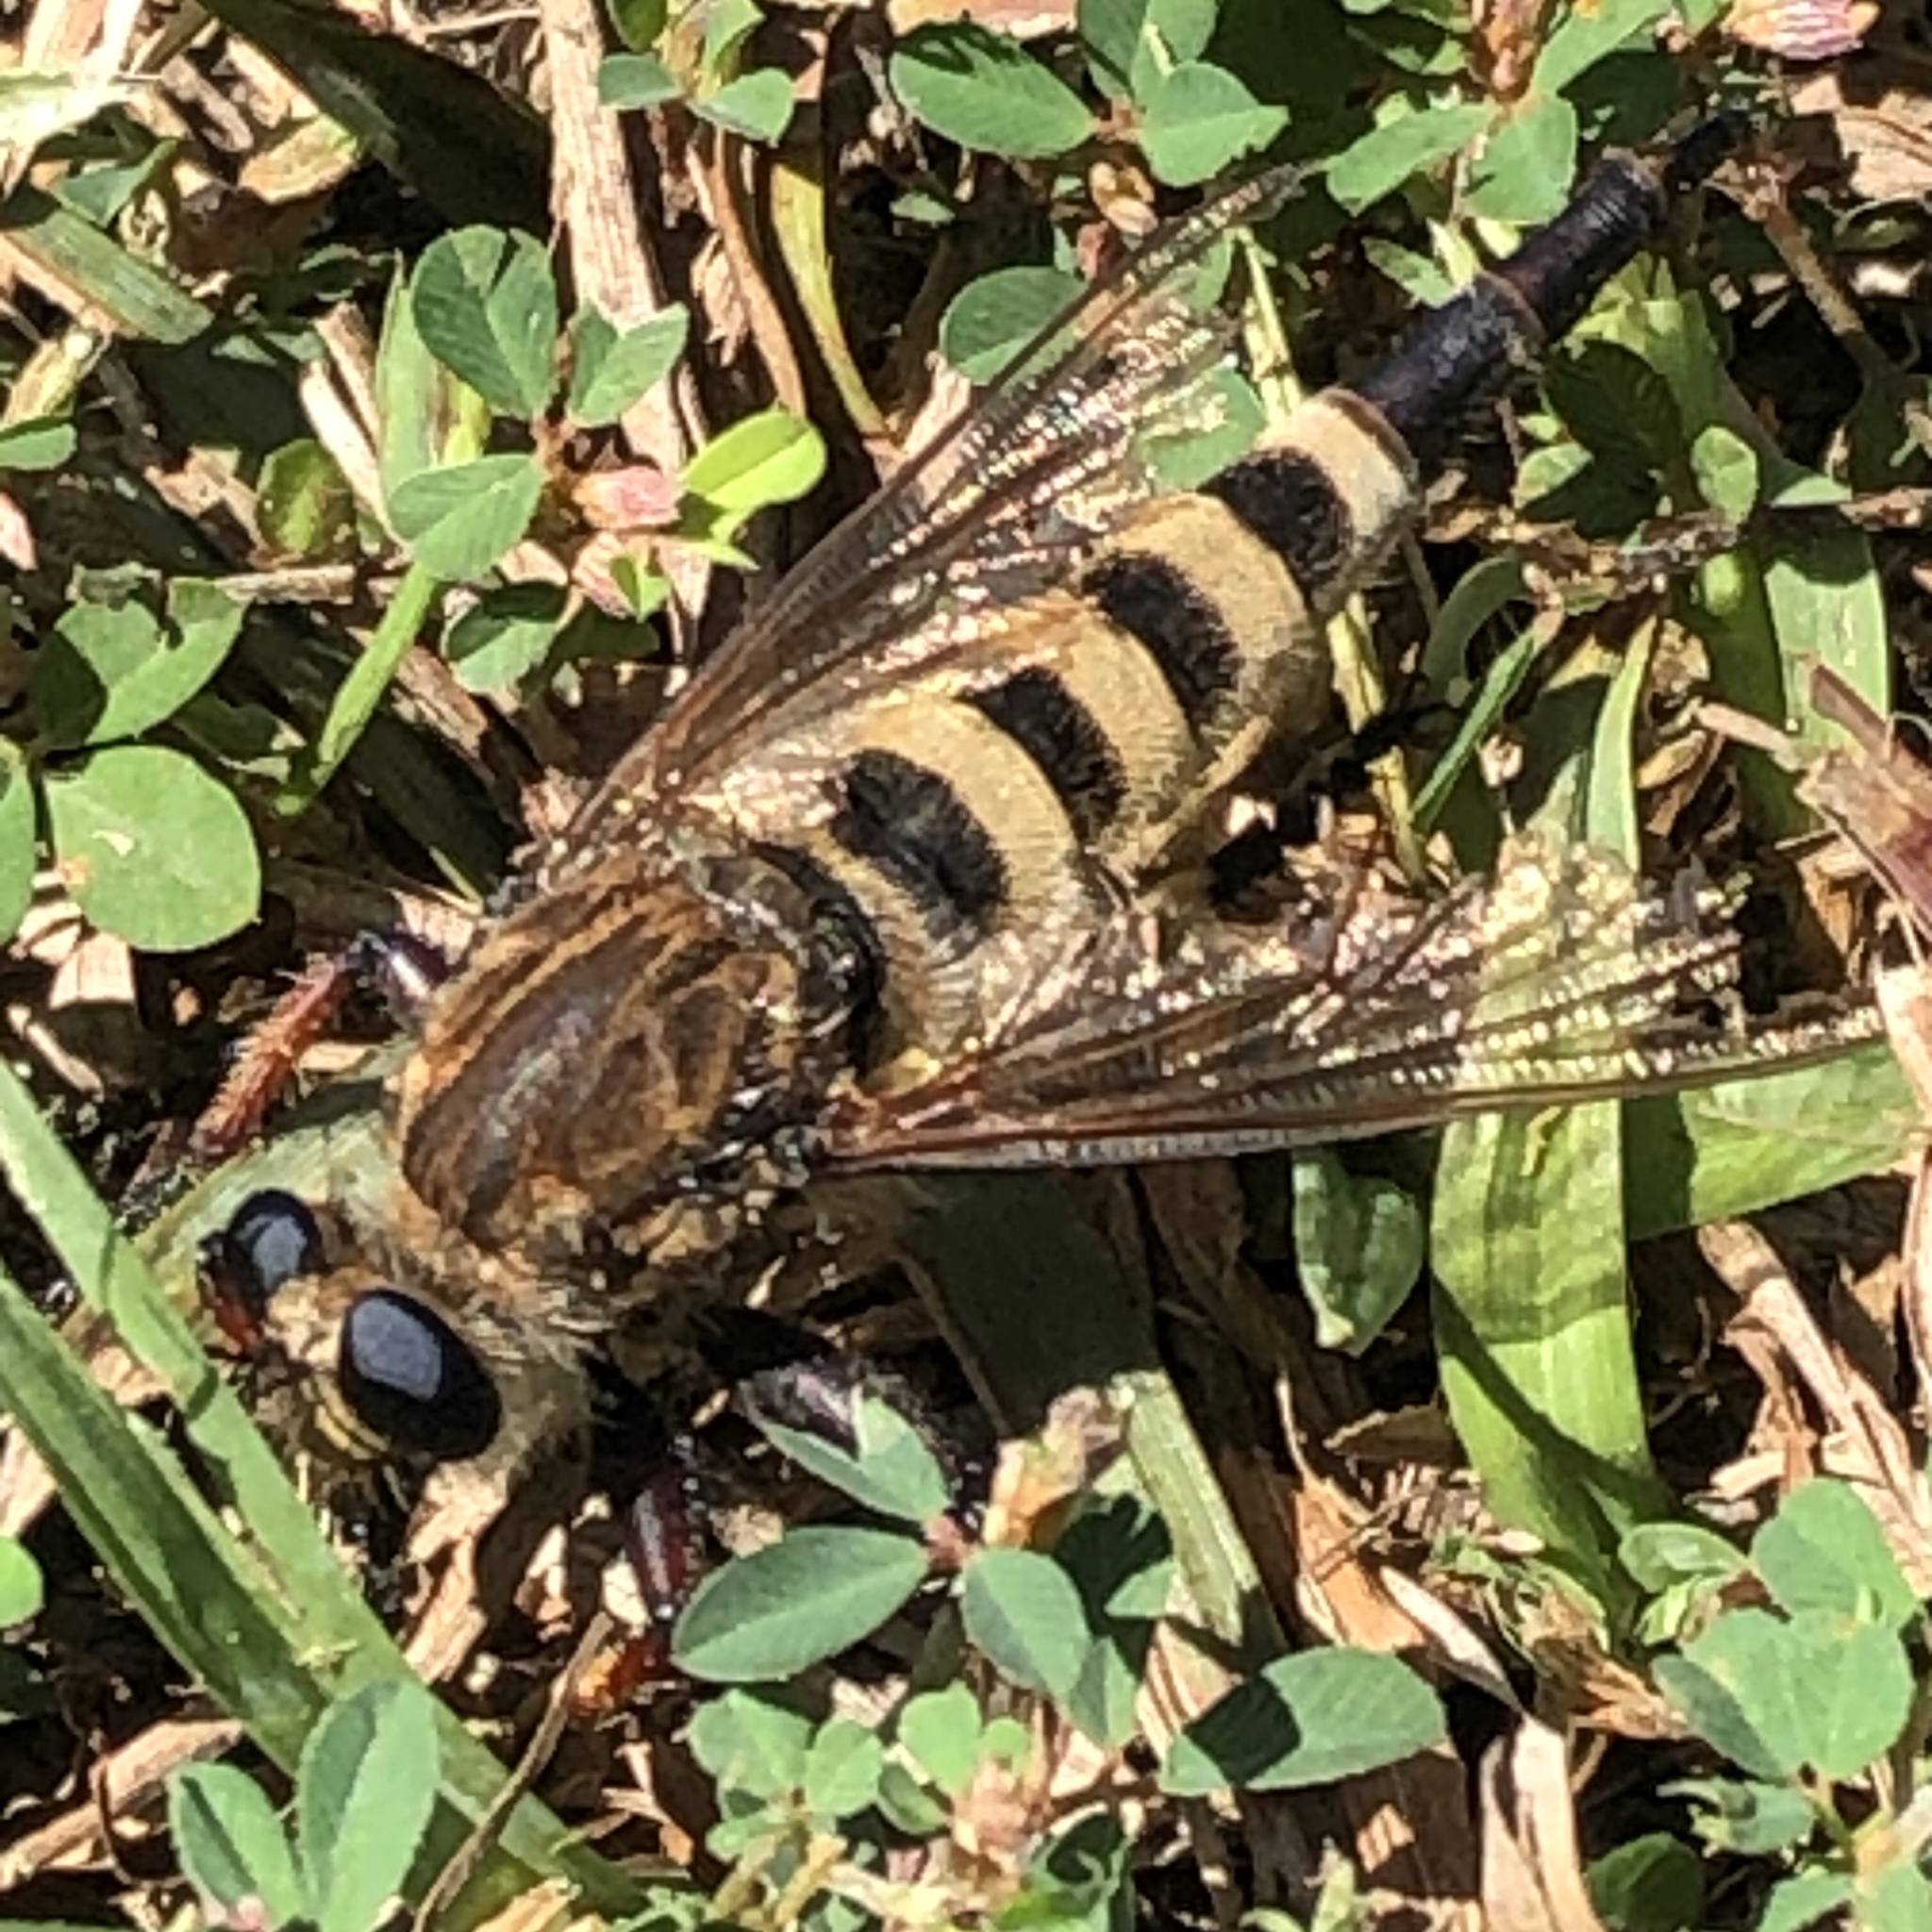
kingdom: Animalia
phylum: Arthropoda
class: Insecta
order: Diptera
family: Asilidae
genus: Promachus
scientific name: Promachus hinei
